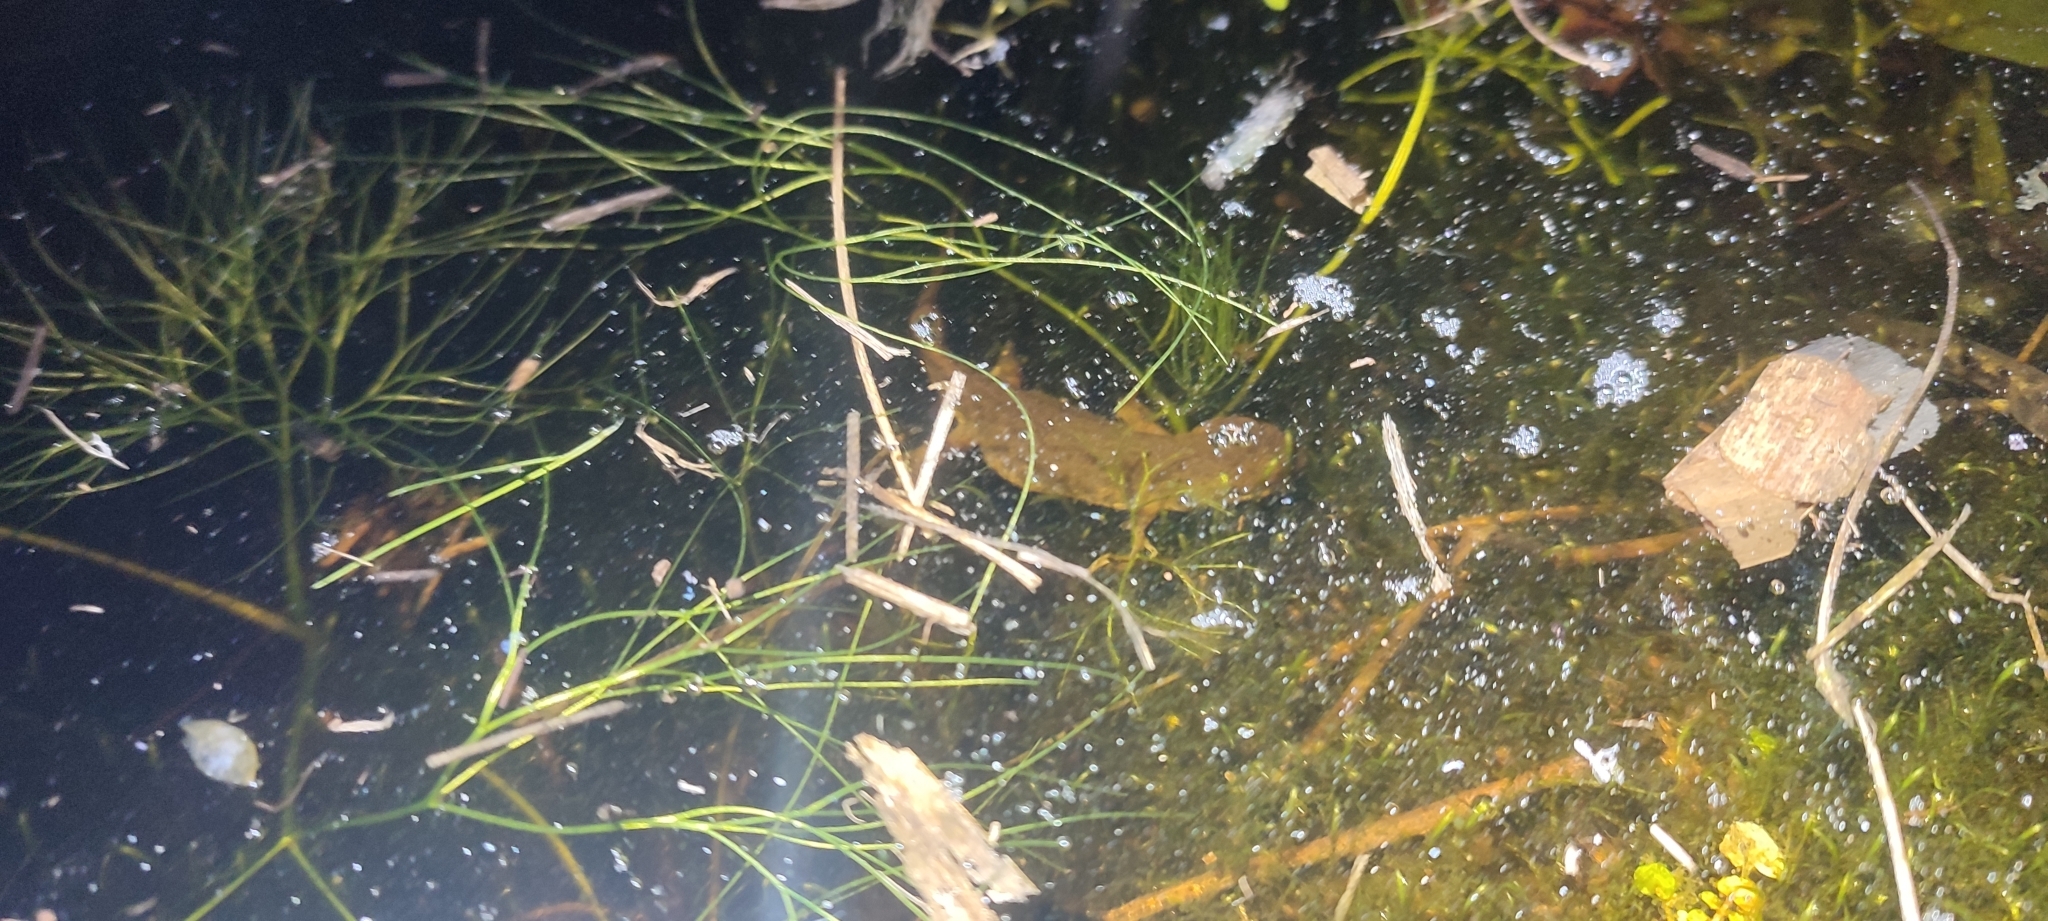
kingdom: Animalia
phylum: Chordata
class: Amphibia
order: Caudata
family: Salamandridae
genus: Lissotriton
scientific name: Lissotriton helveticus
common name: Palmate newt
